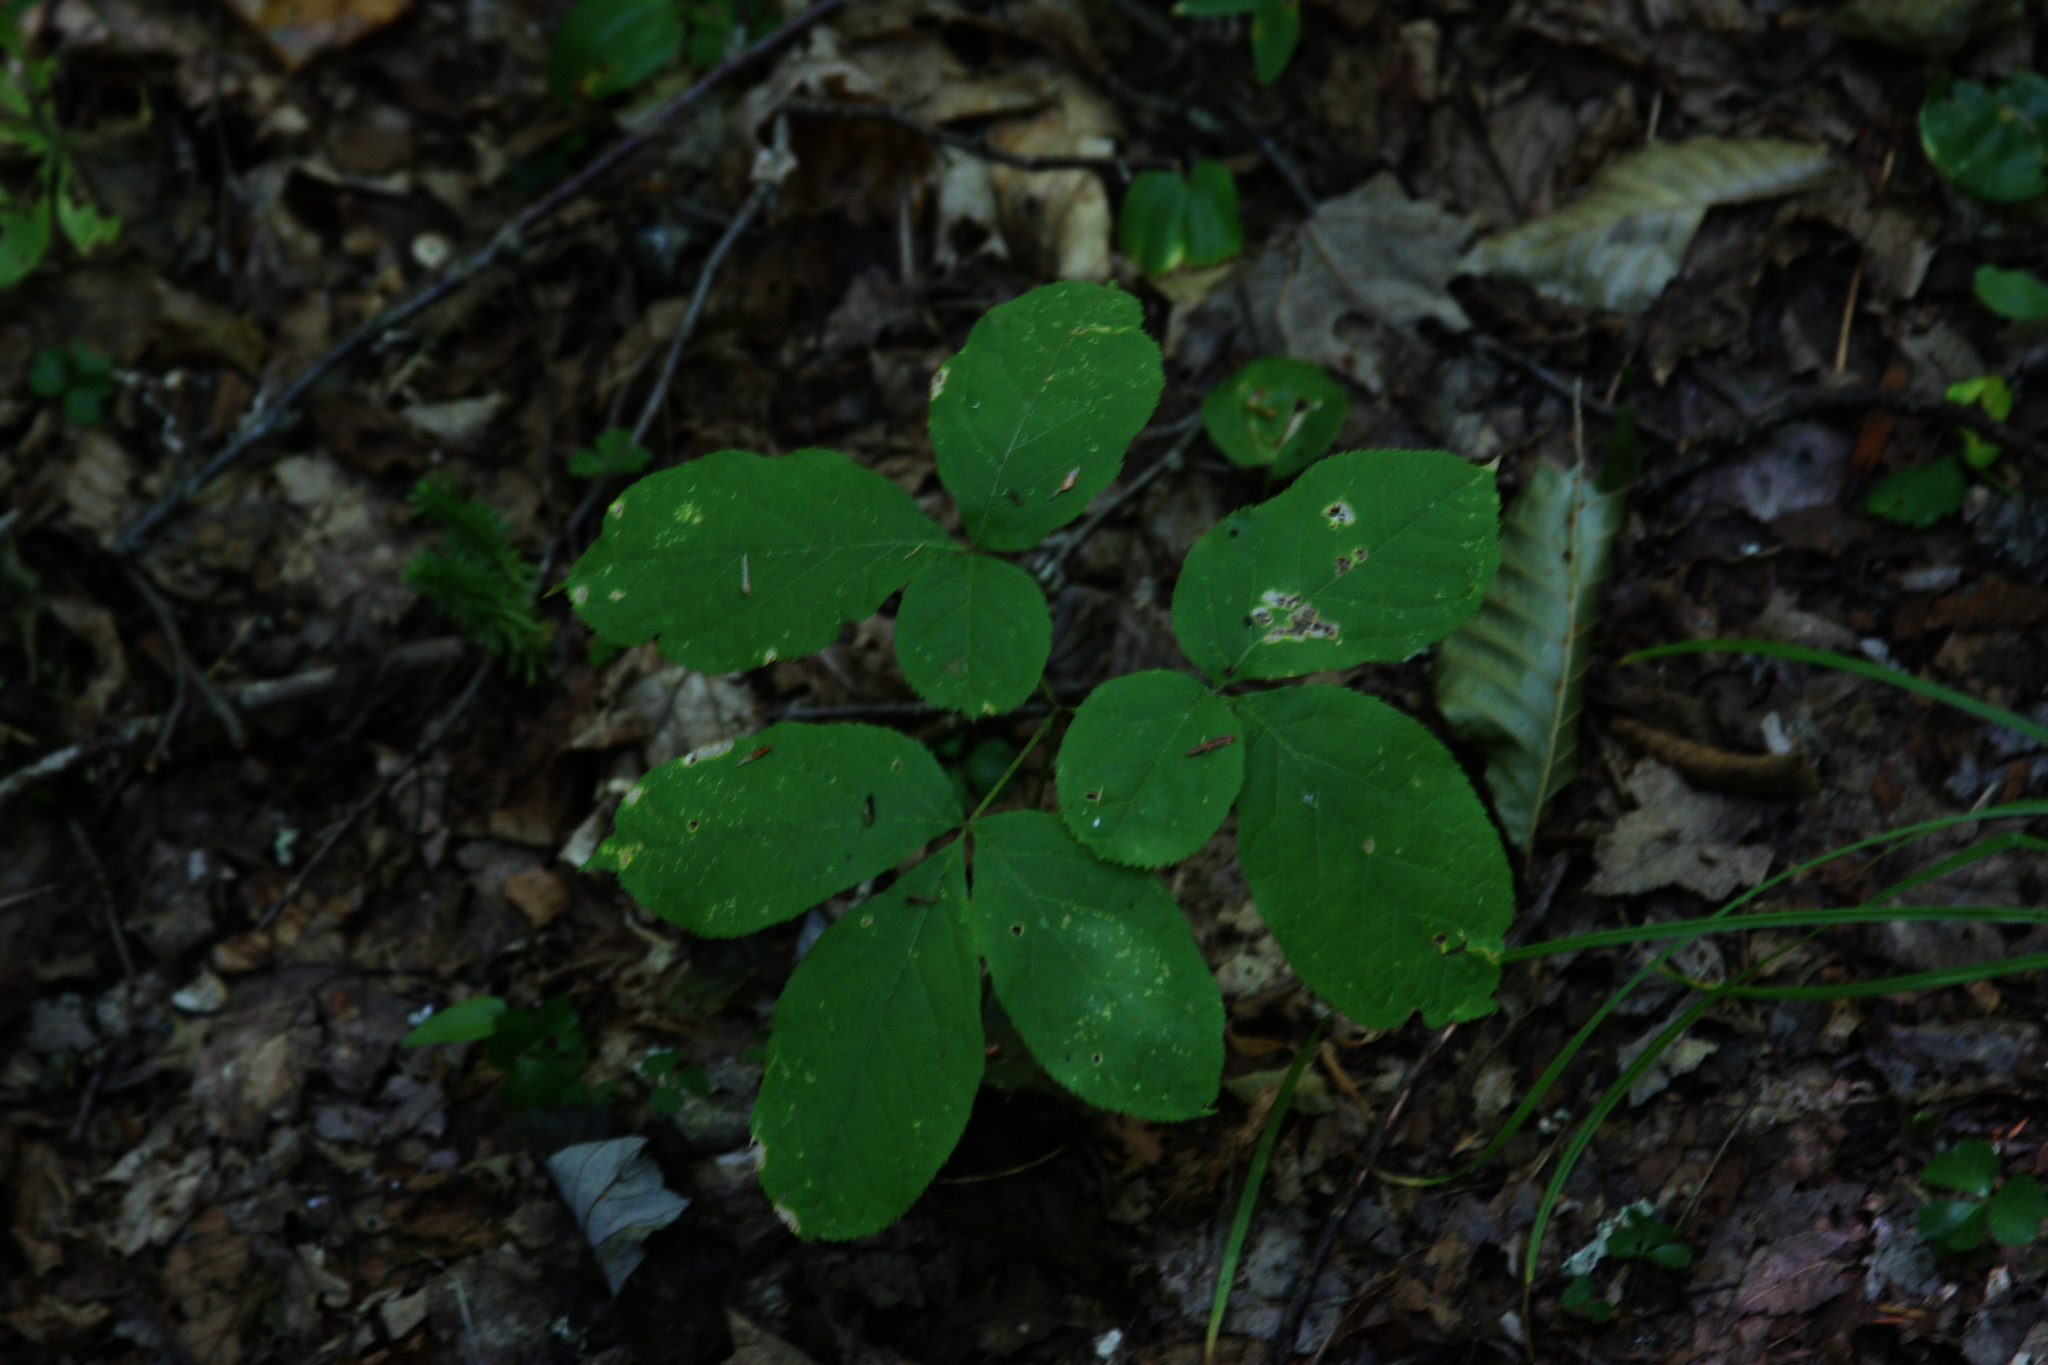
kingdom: Plantae
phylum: Tracheophyta
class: Magnoliopsida
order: Apiales
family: Araliaceae
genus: Aralia
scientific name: Aralia nudicaulis
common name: Wild sarsaparilla
